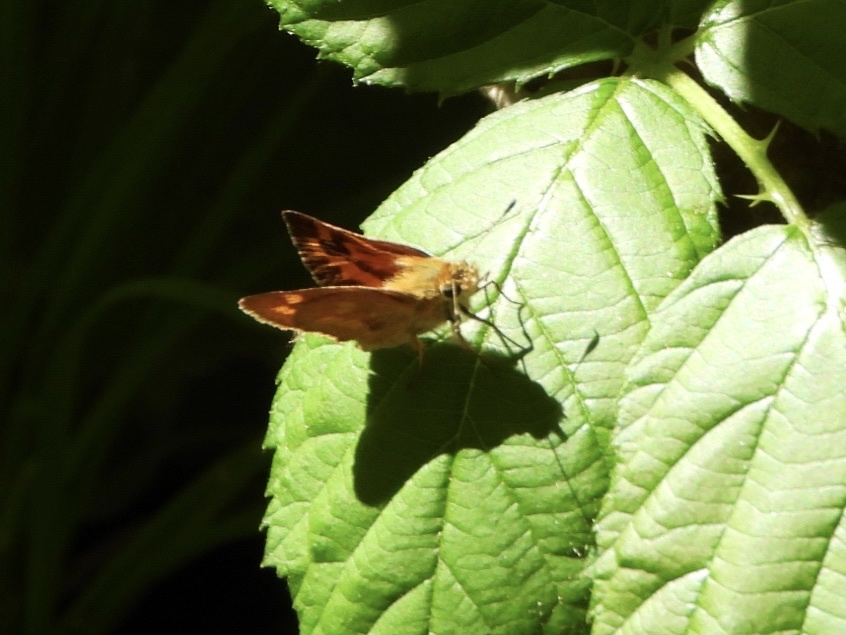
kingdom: Animalia
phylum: Arthropoda
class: Insecta
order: Lepidoptera
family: Hesperiidae
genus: Ochlodes
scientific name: Ochlodes sylvanoides
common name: Woodland skipper
